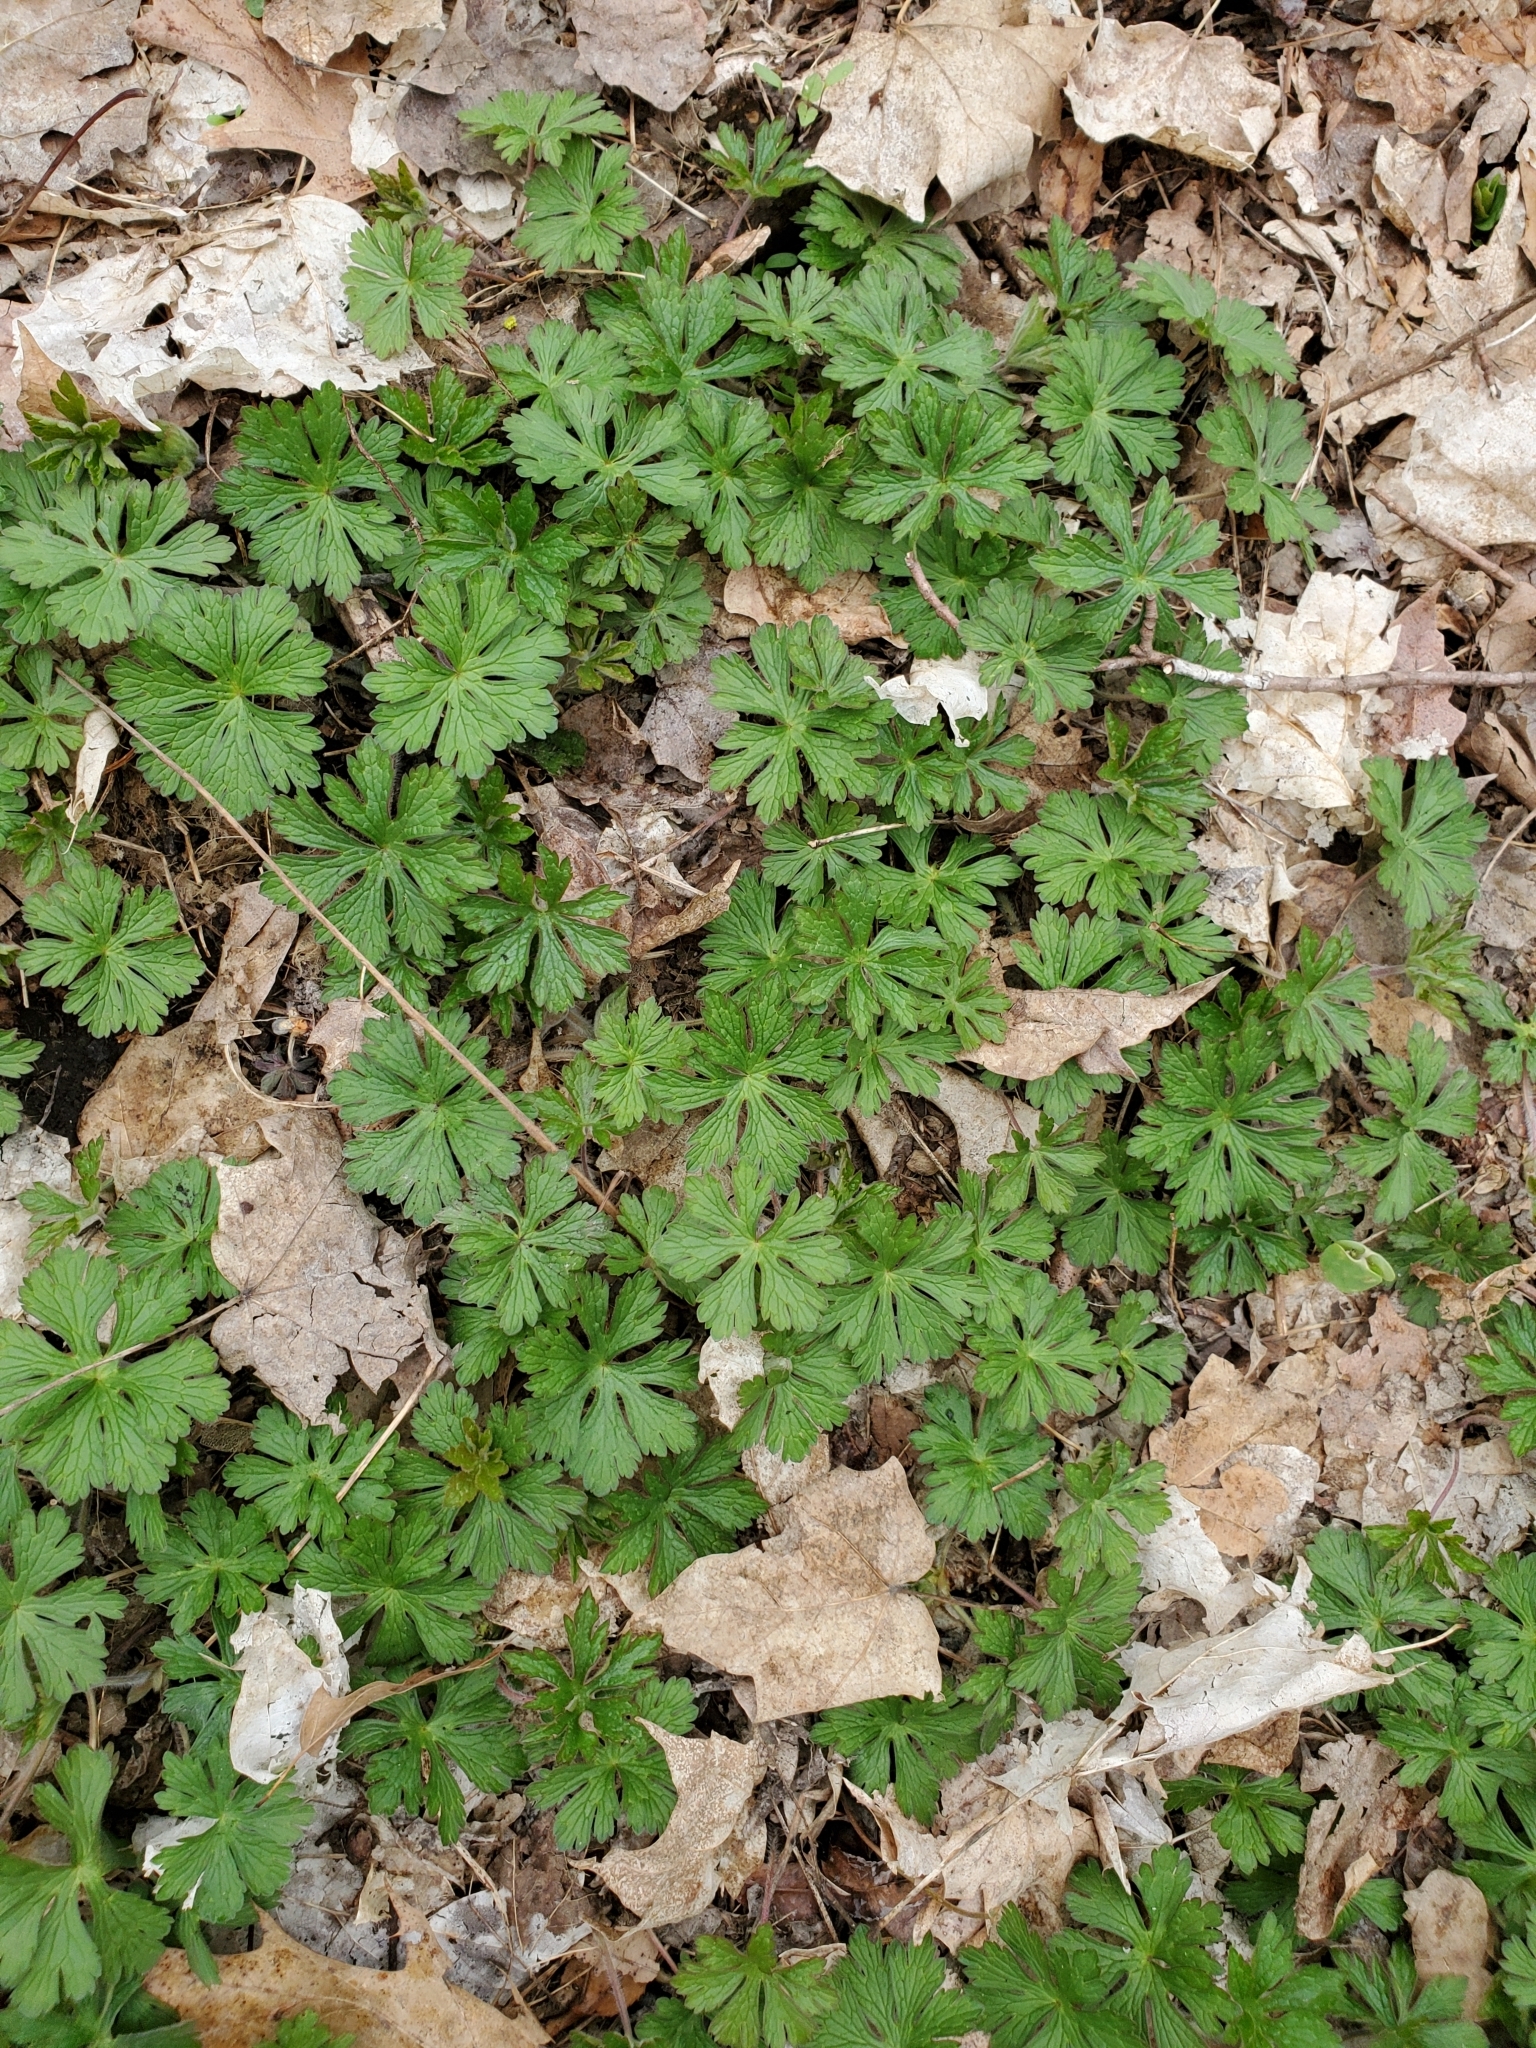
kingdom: Plantae
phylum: Tracheophyta
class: Magnoliopsida
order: Geraniales
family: Geraniaceae
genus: Geranium
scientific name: Geranium maculatum
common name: Spotted geranium
